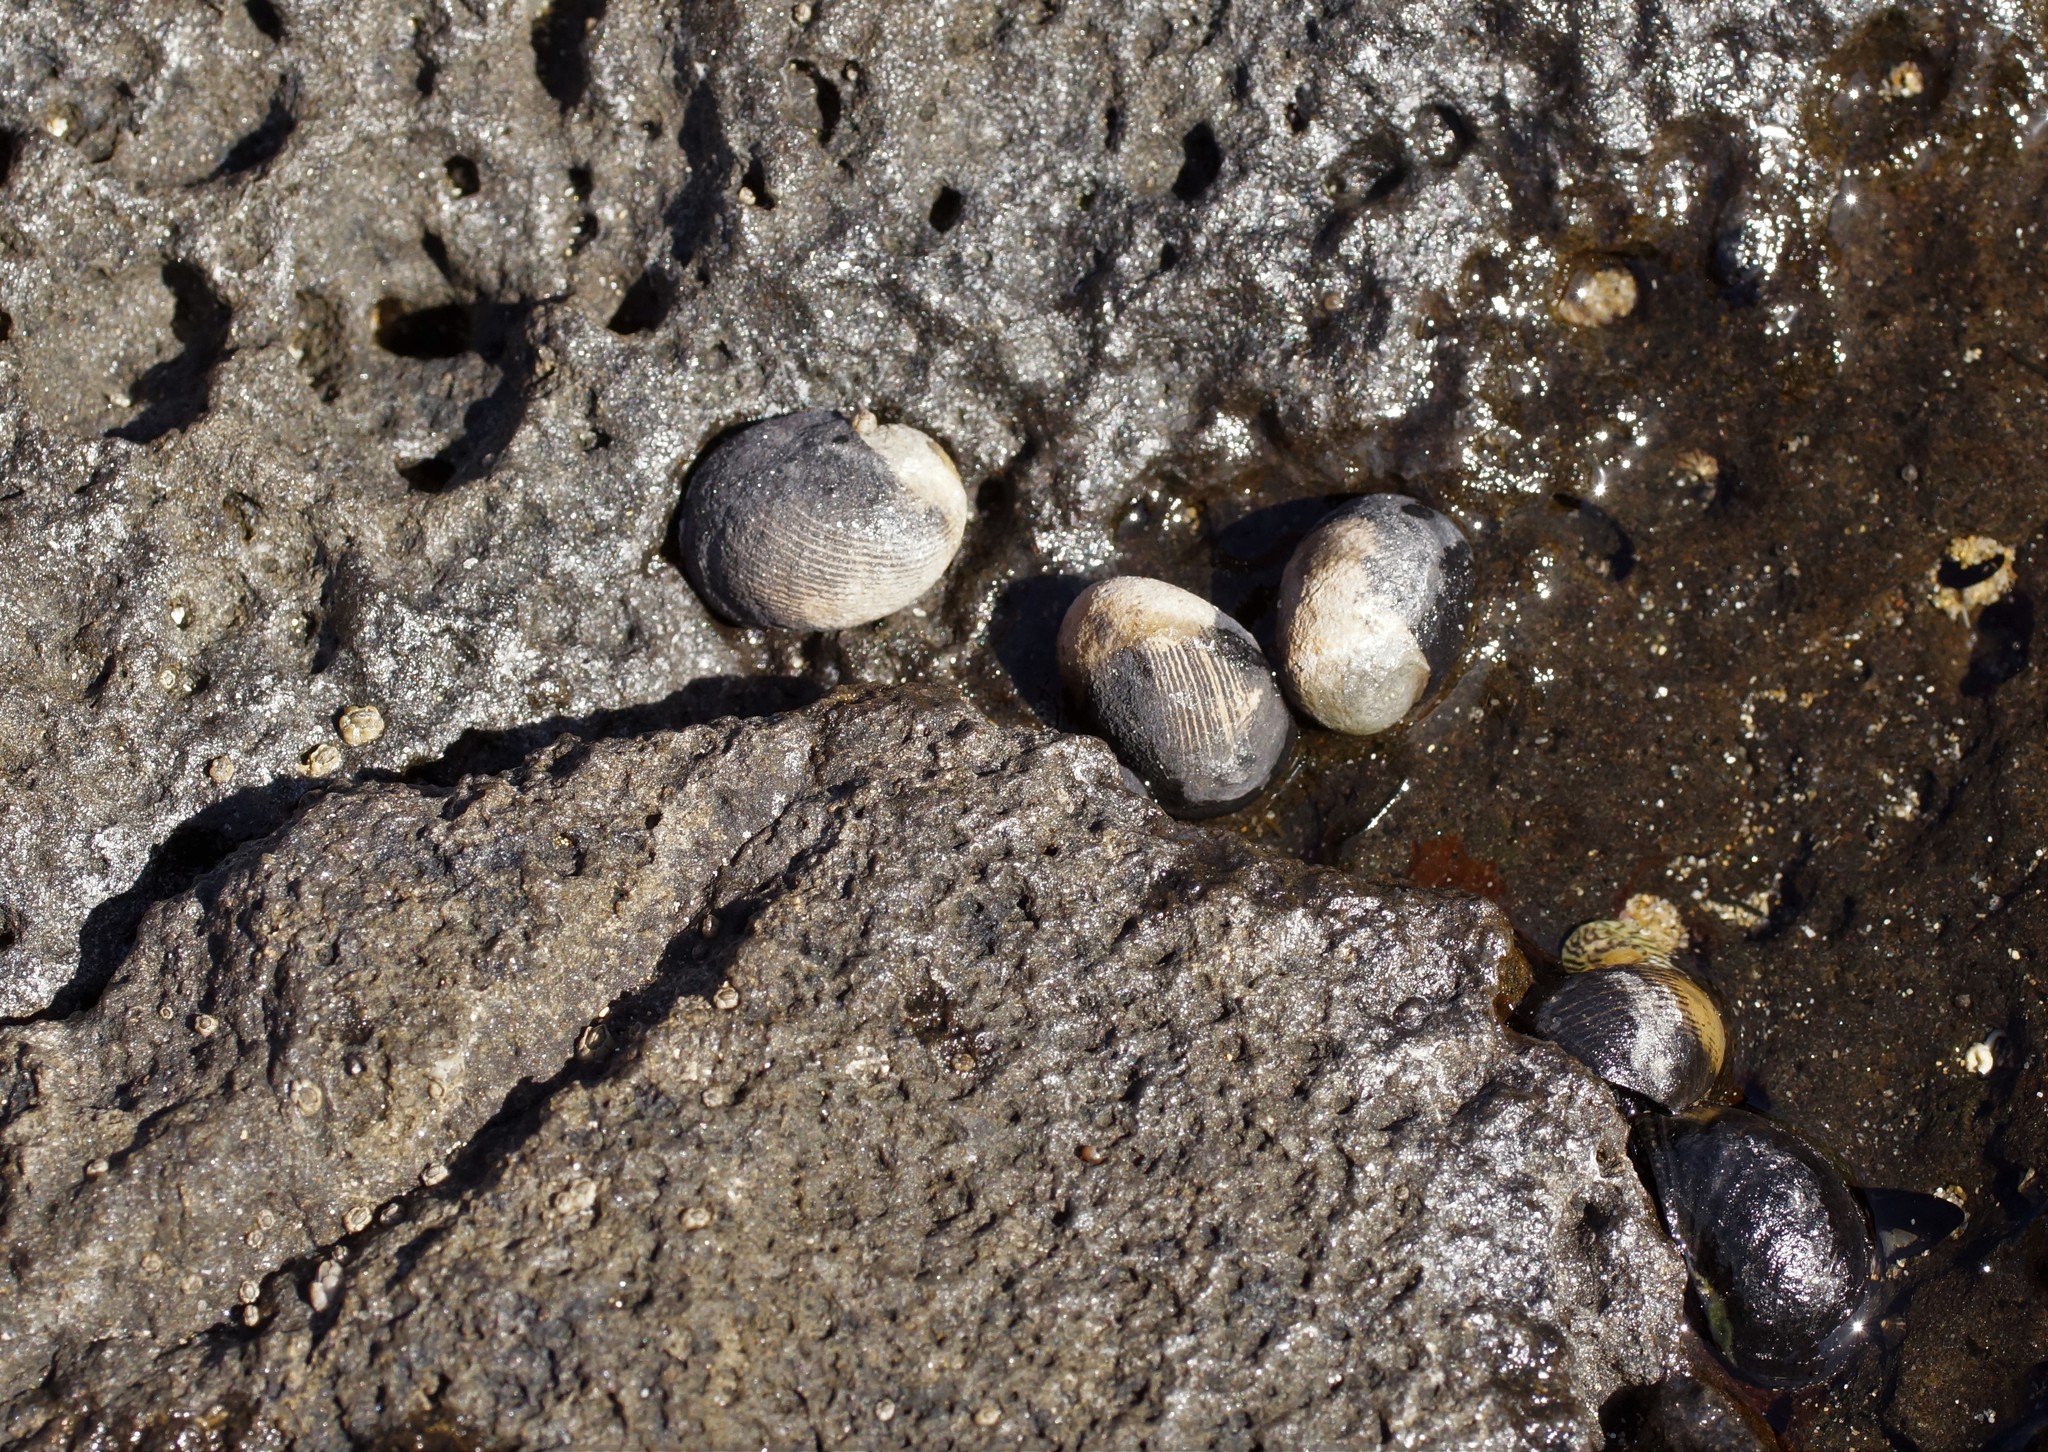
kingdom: Animalia
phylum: Mollusca
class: Gastropoda
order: Cycloneritida
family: Neritidae
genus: Nerita
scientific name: Nerita atramentosa
